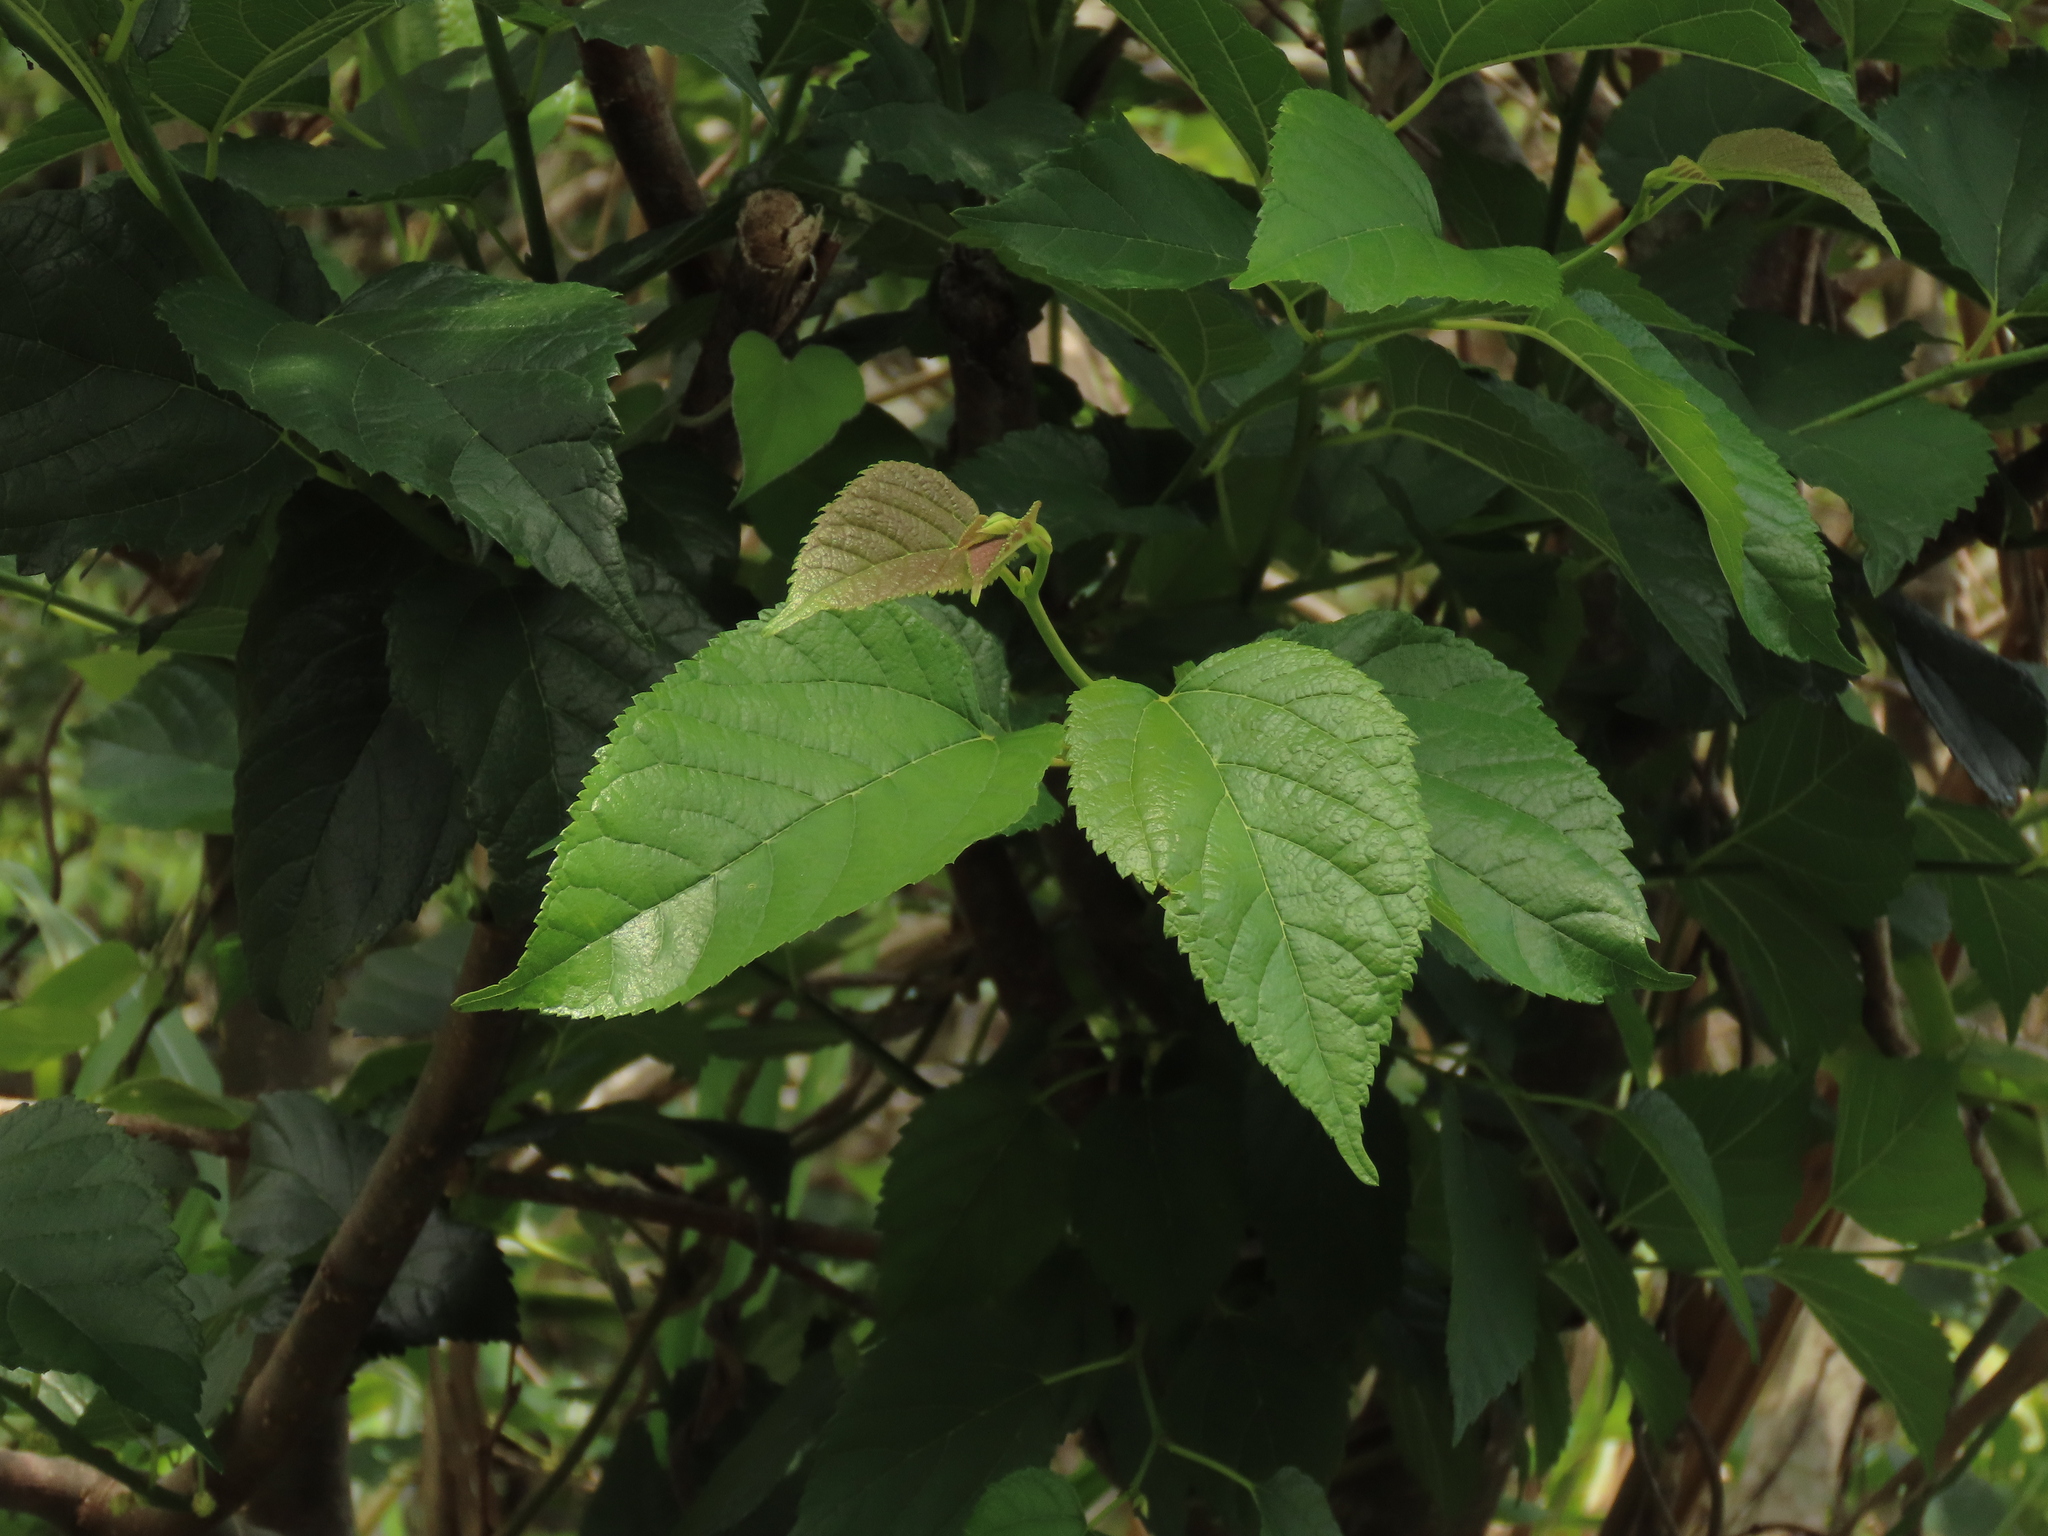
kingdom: Plantae
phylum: Tracheophyta
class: Magnoliopsida
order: Rosales
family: Moraceae
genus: Morus
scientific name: Morus indica
